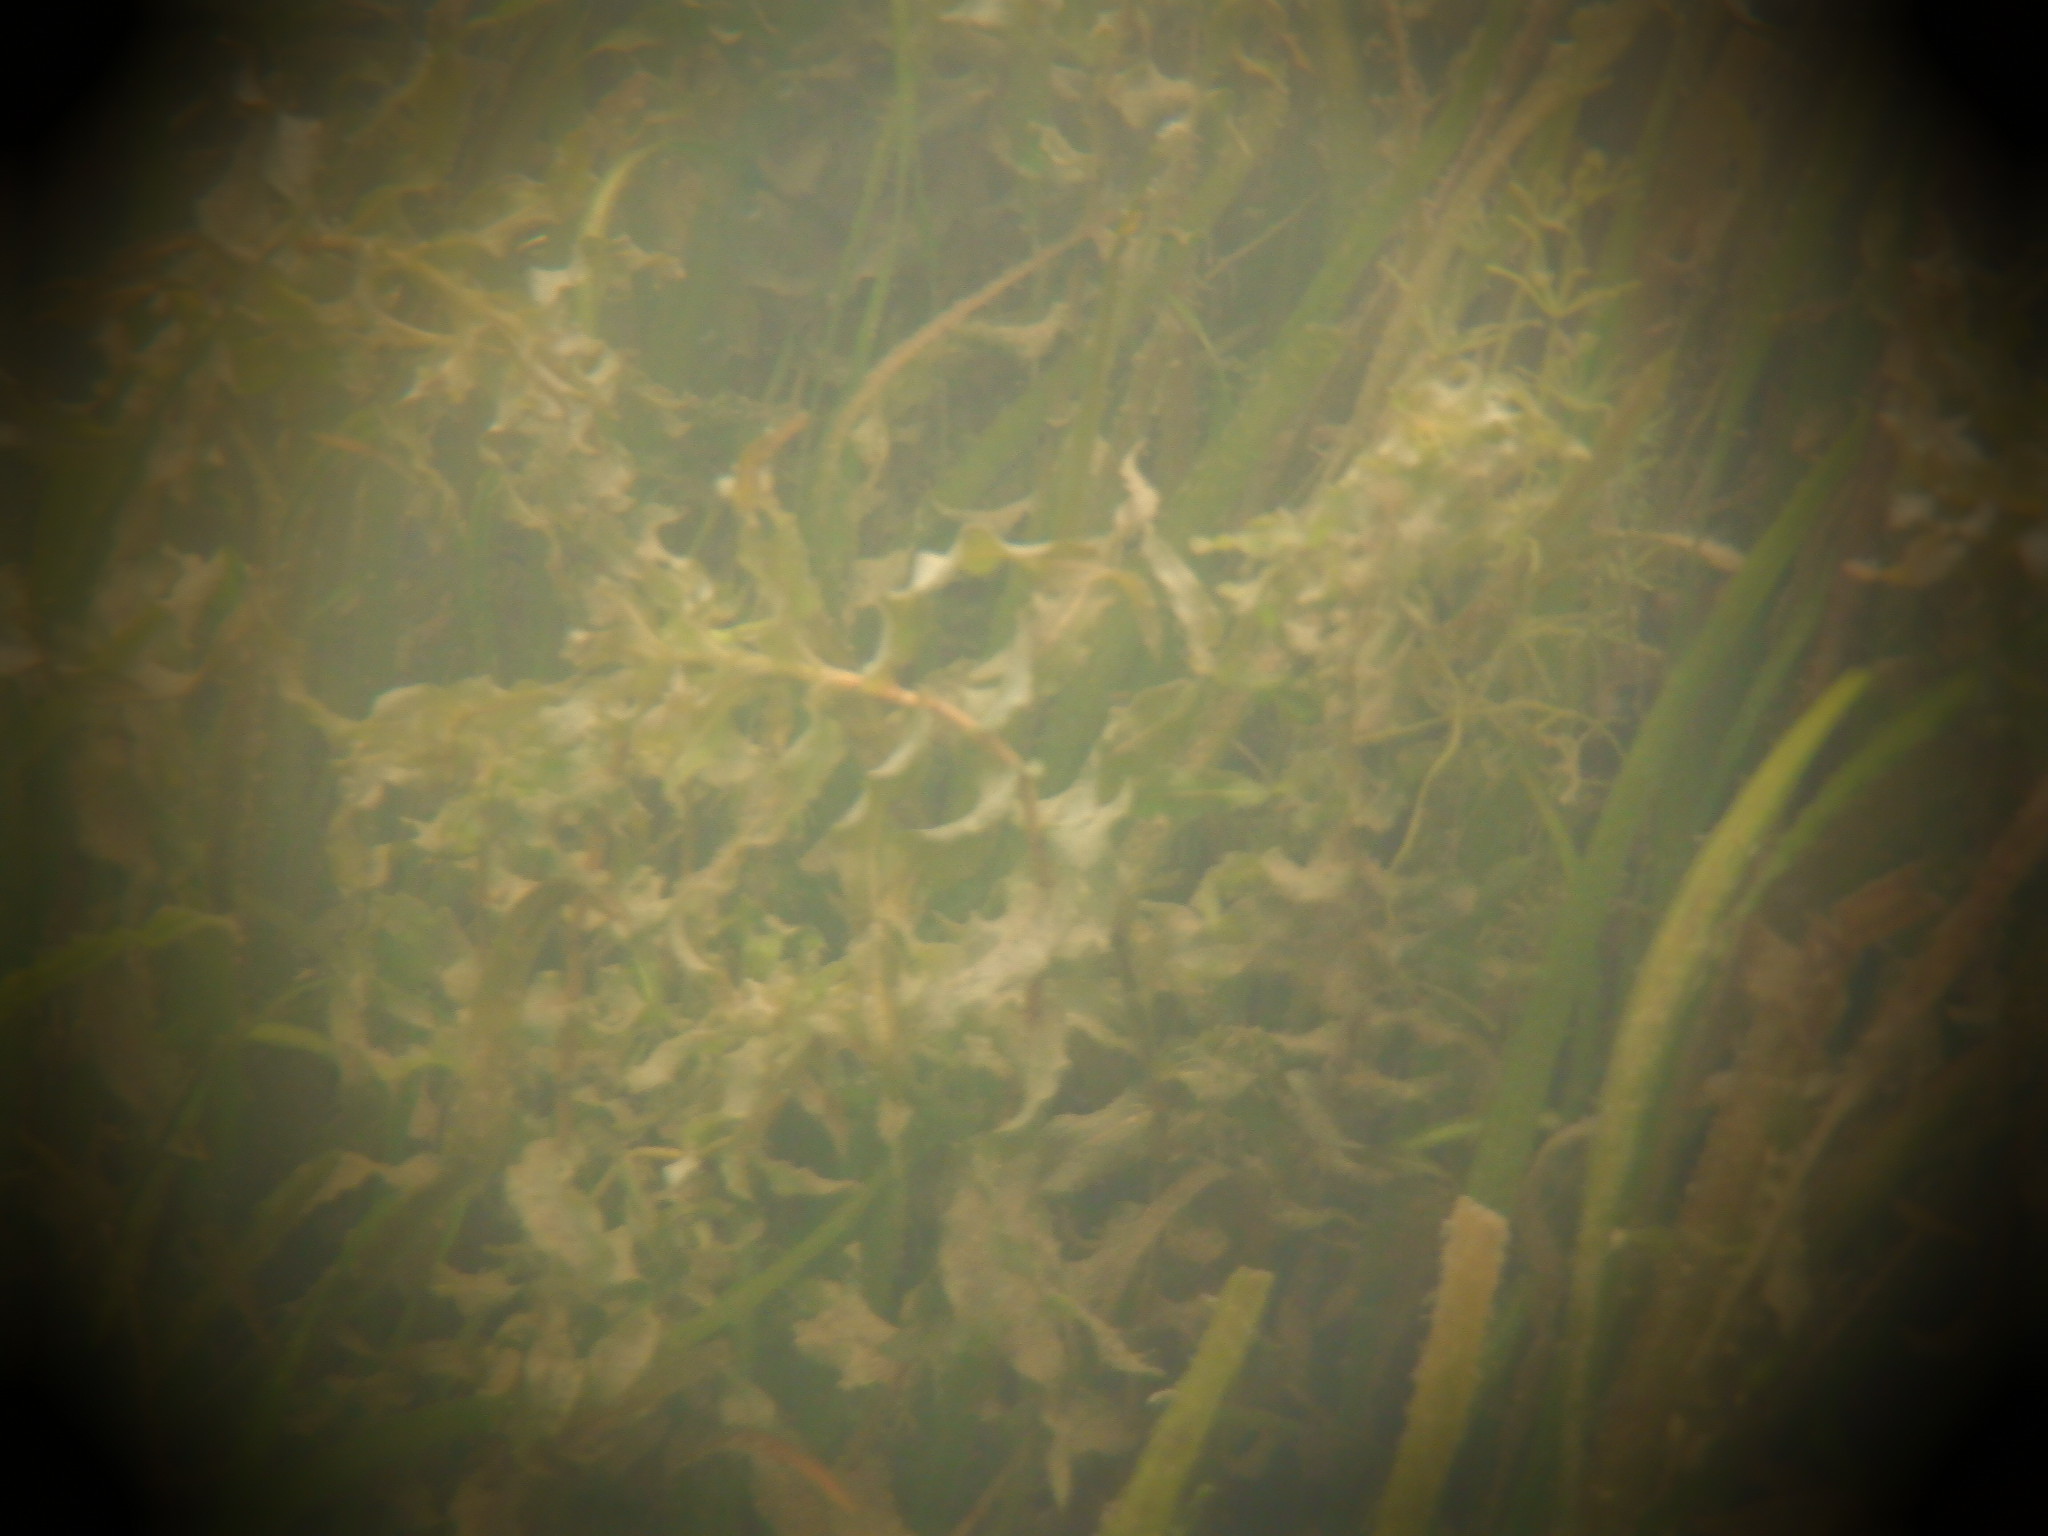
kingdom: Plantae
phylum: Tracheophyta
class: Liliopsida
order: Alismatales
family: Potamogetonaceae
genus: Potamogeton
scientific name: Potamogeton richardsonii
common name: Richardson's pondweed
